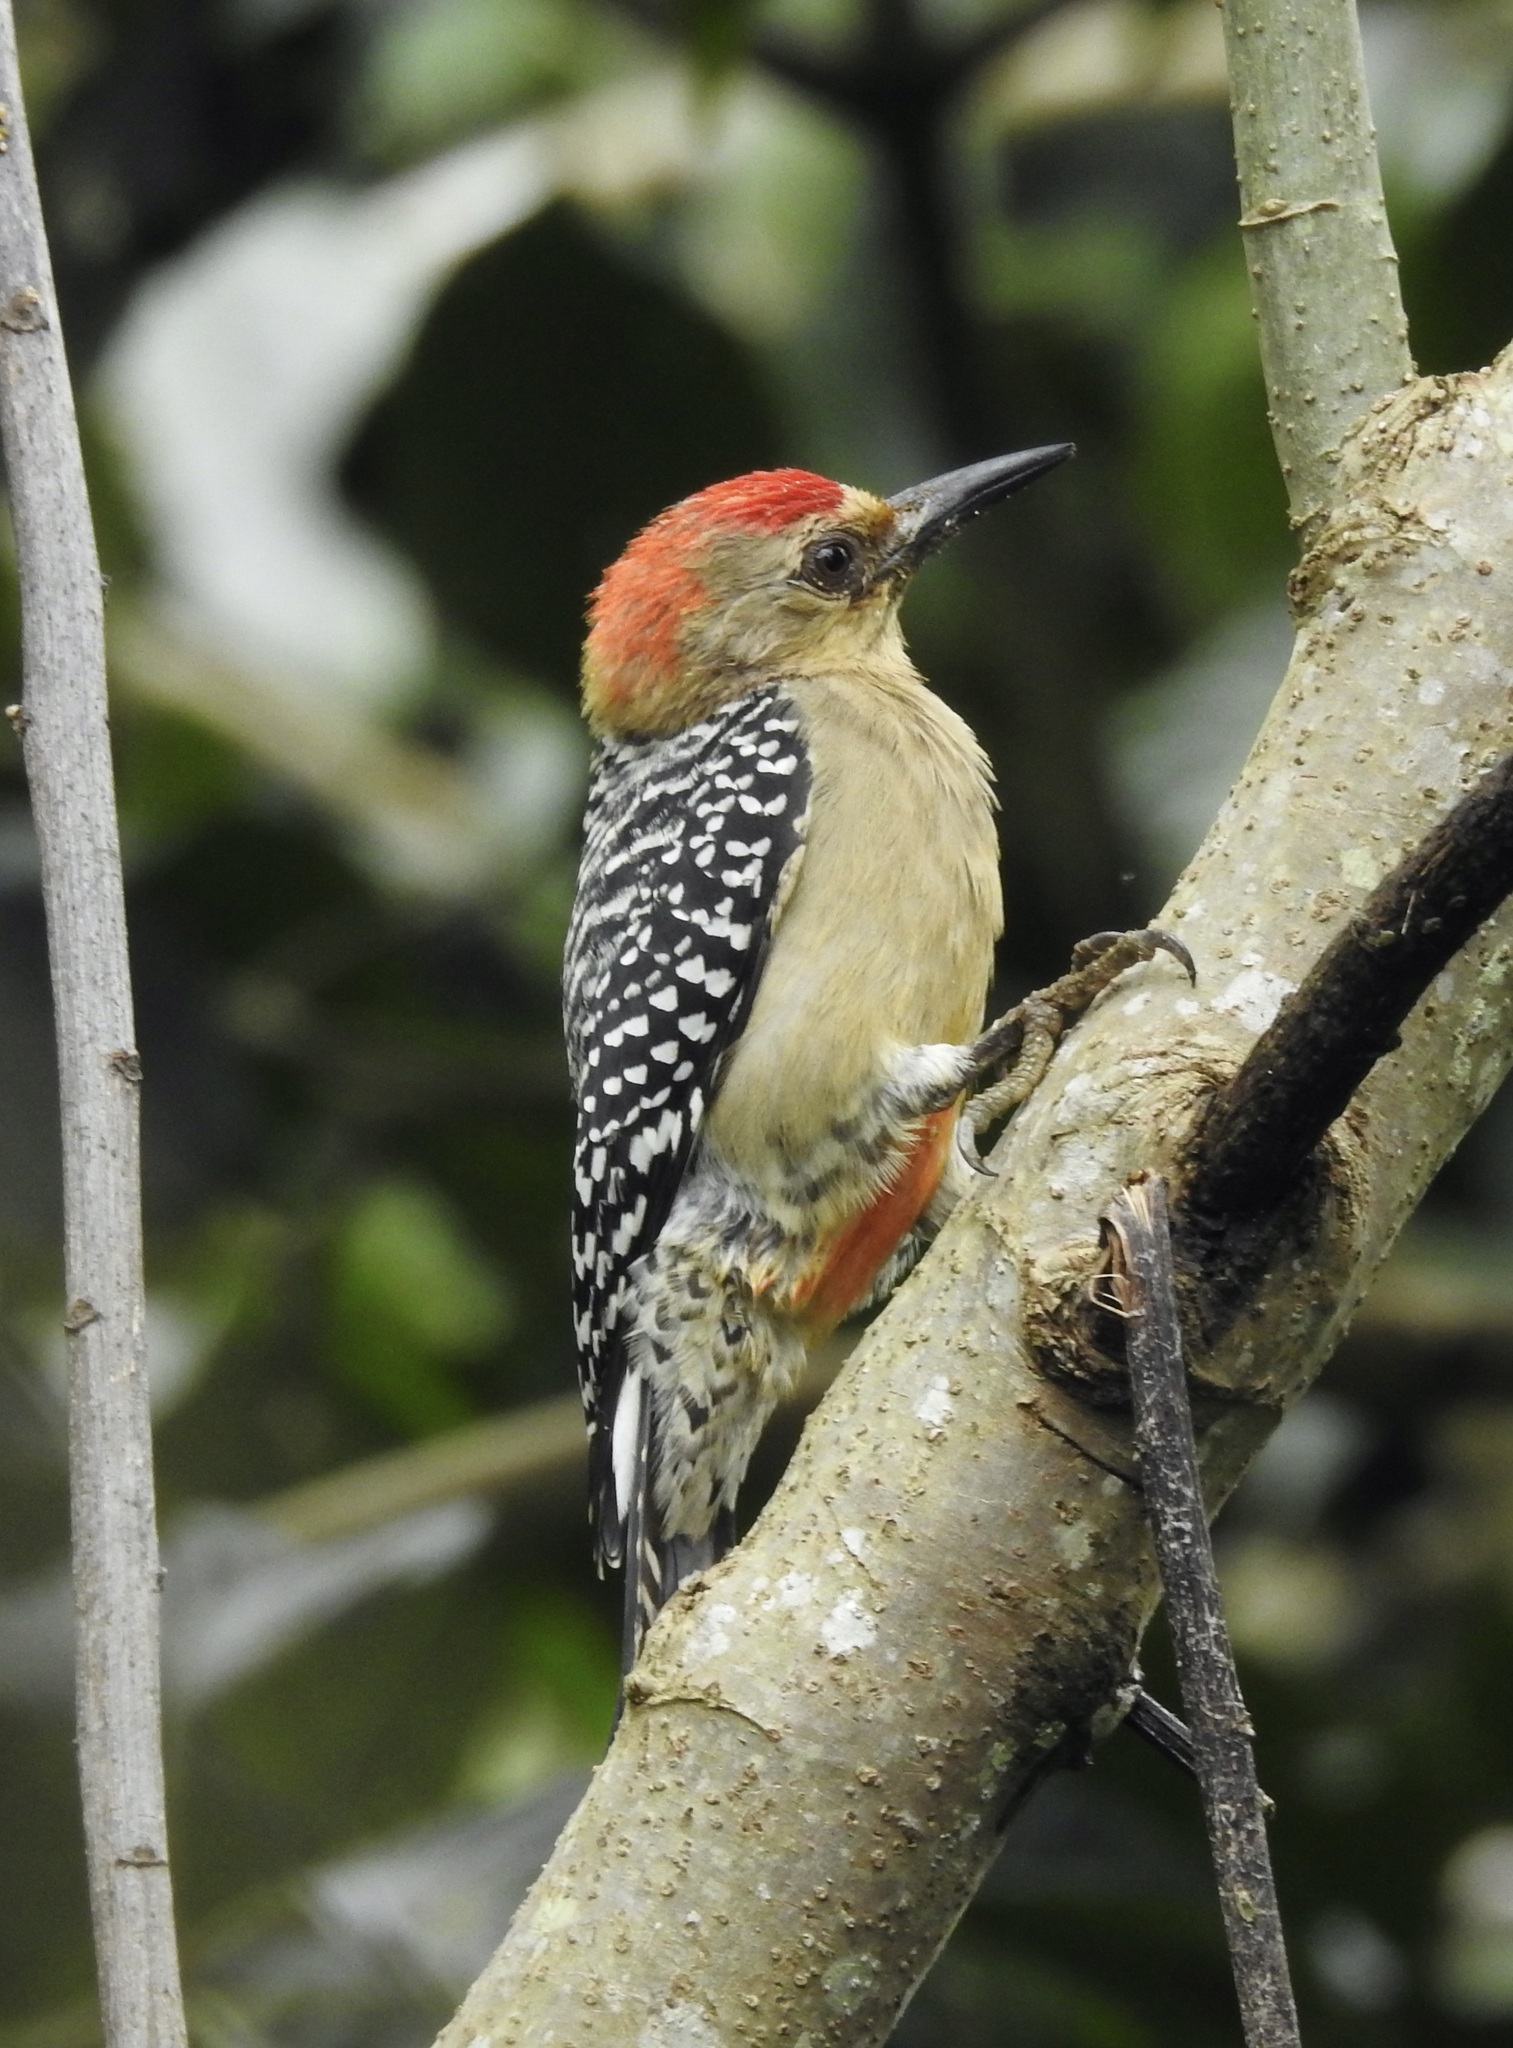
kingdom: Animalia
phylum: Chordata
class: Aves
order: Piciformes
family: Picidae
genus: Melanerpes
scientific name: Melanerpes rubricapillus
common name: Red-crowned woodpecker
